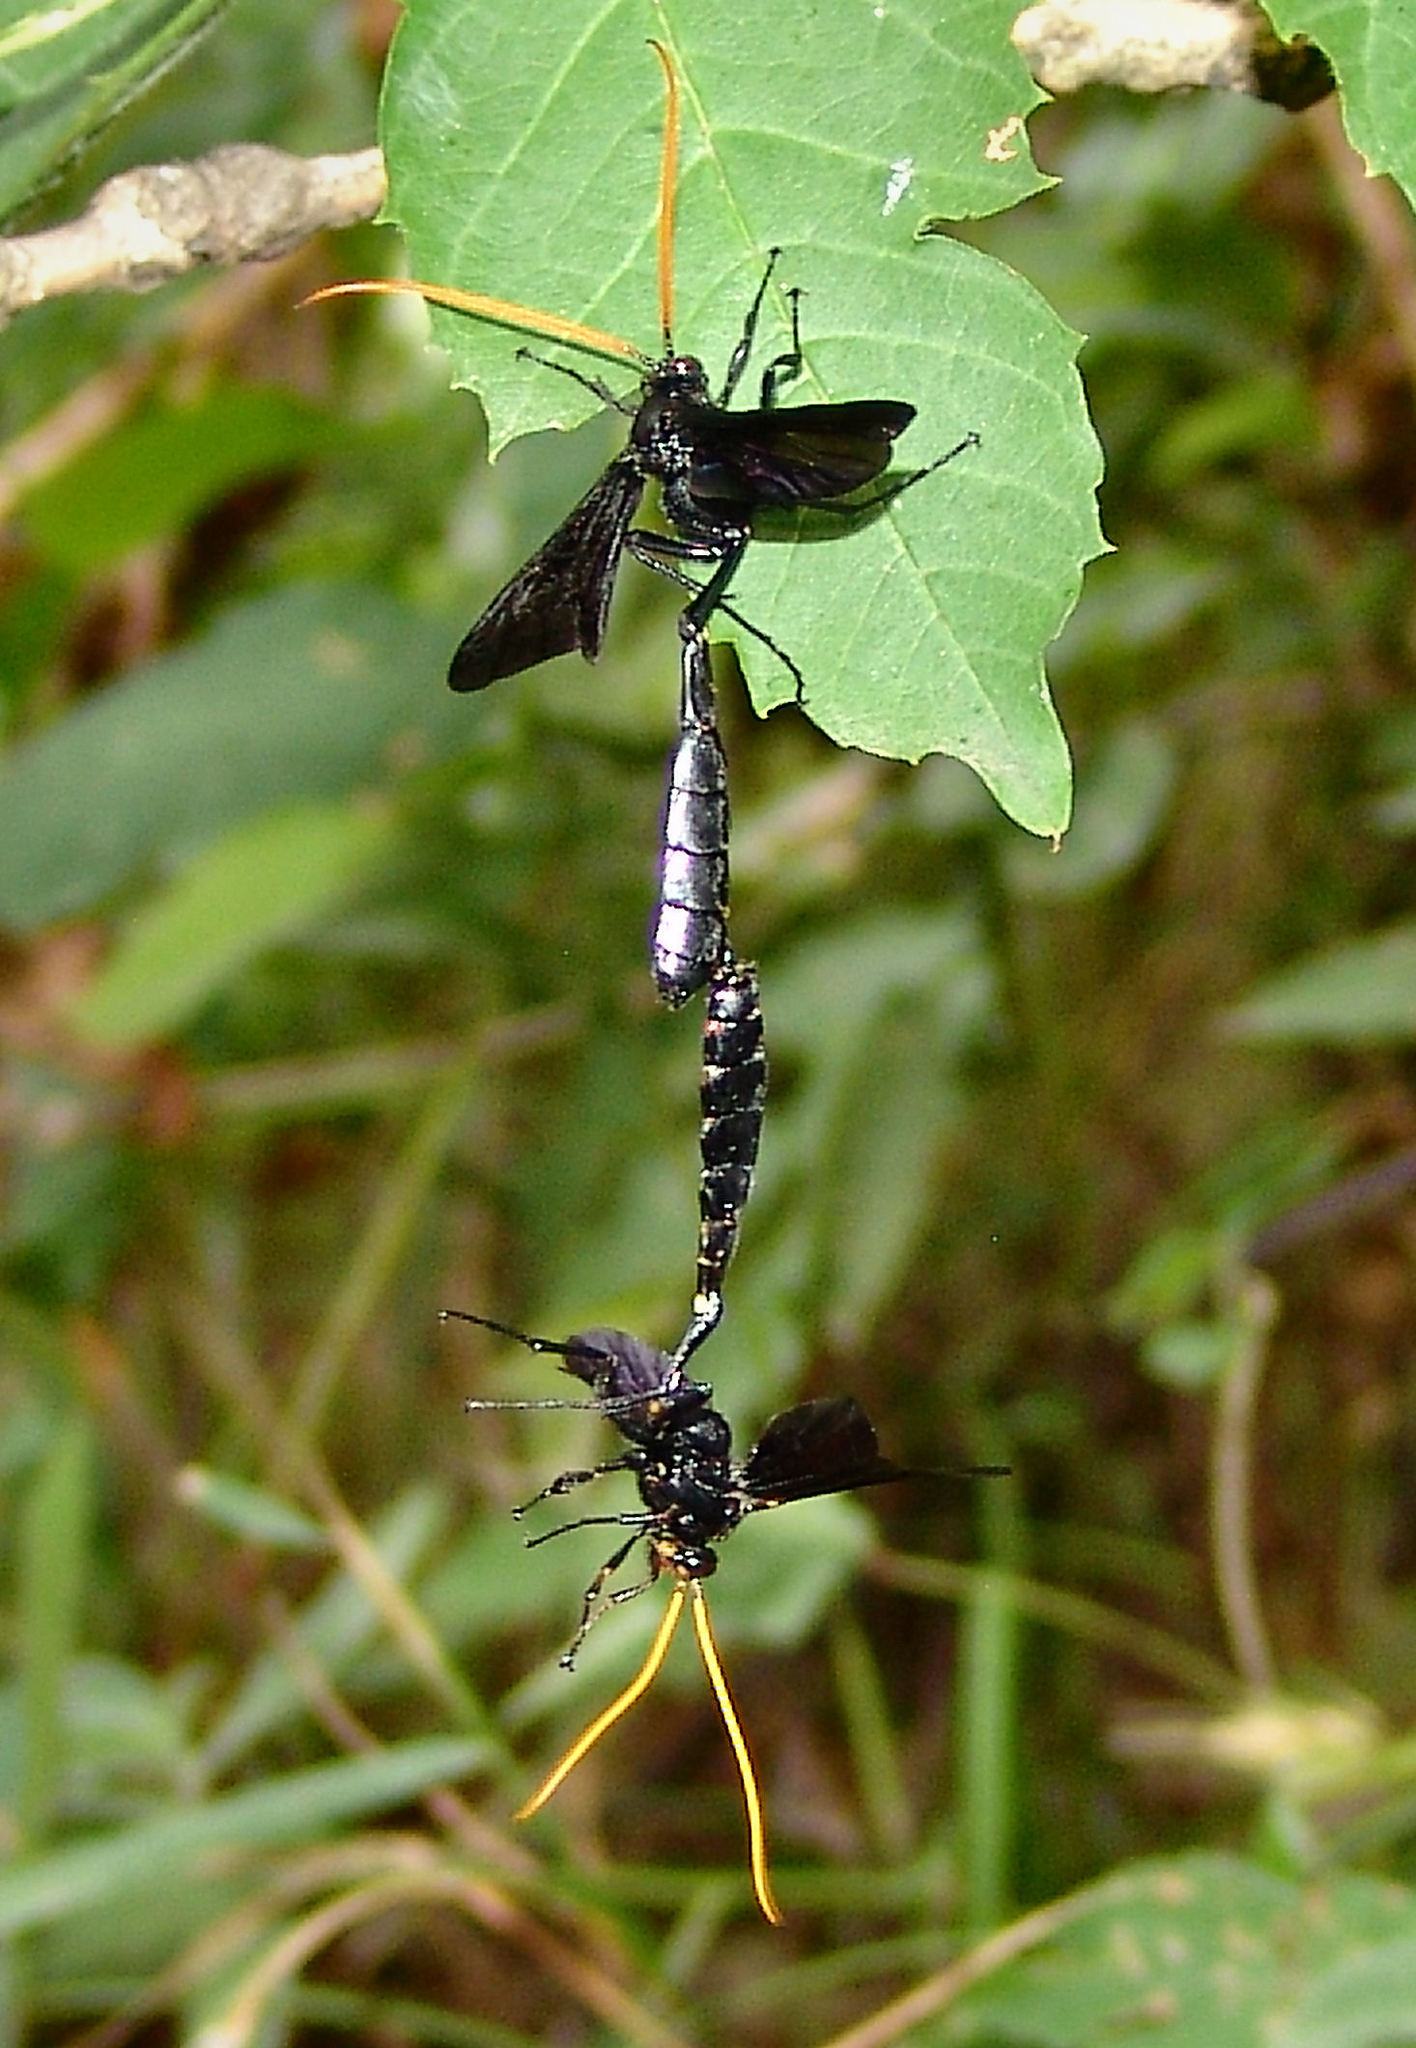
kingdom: Animalia
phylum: Arthropoda
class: Insecta
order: Hymenoptera
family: Ichneumonidae
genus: Thyreodon
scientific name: Thyreodon atricolor
